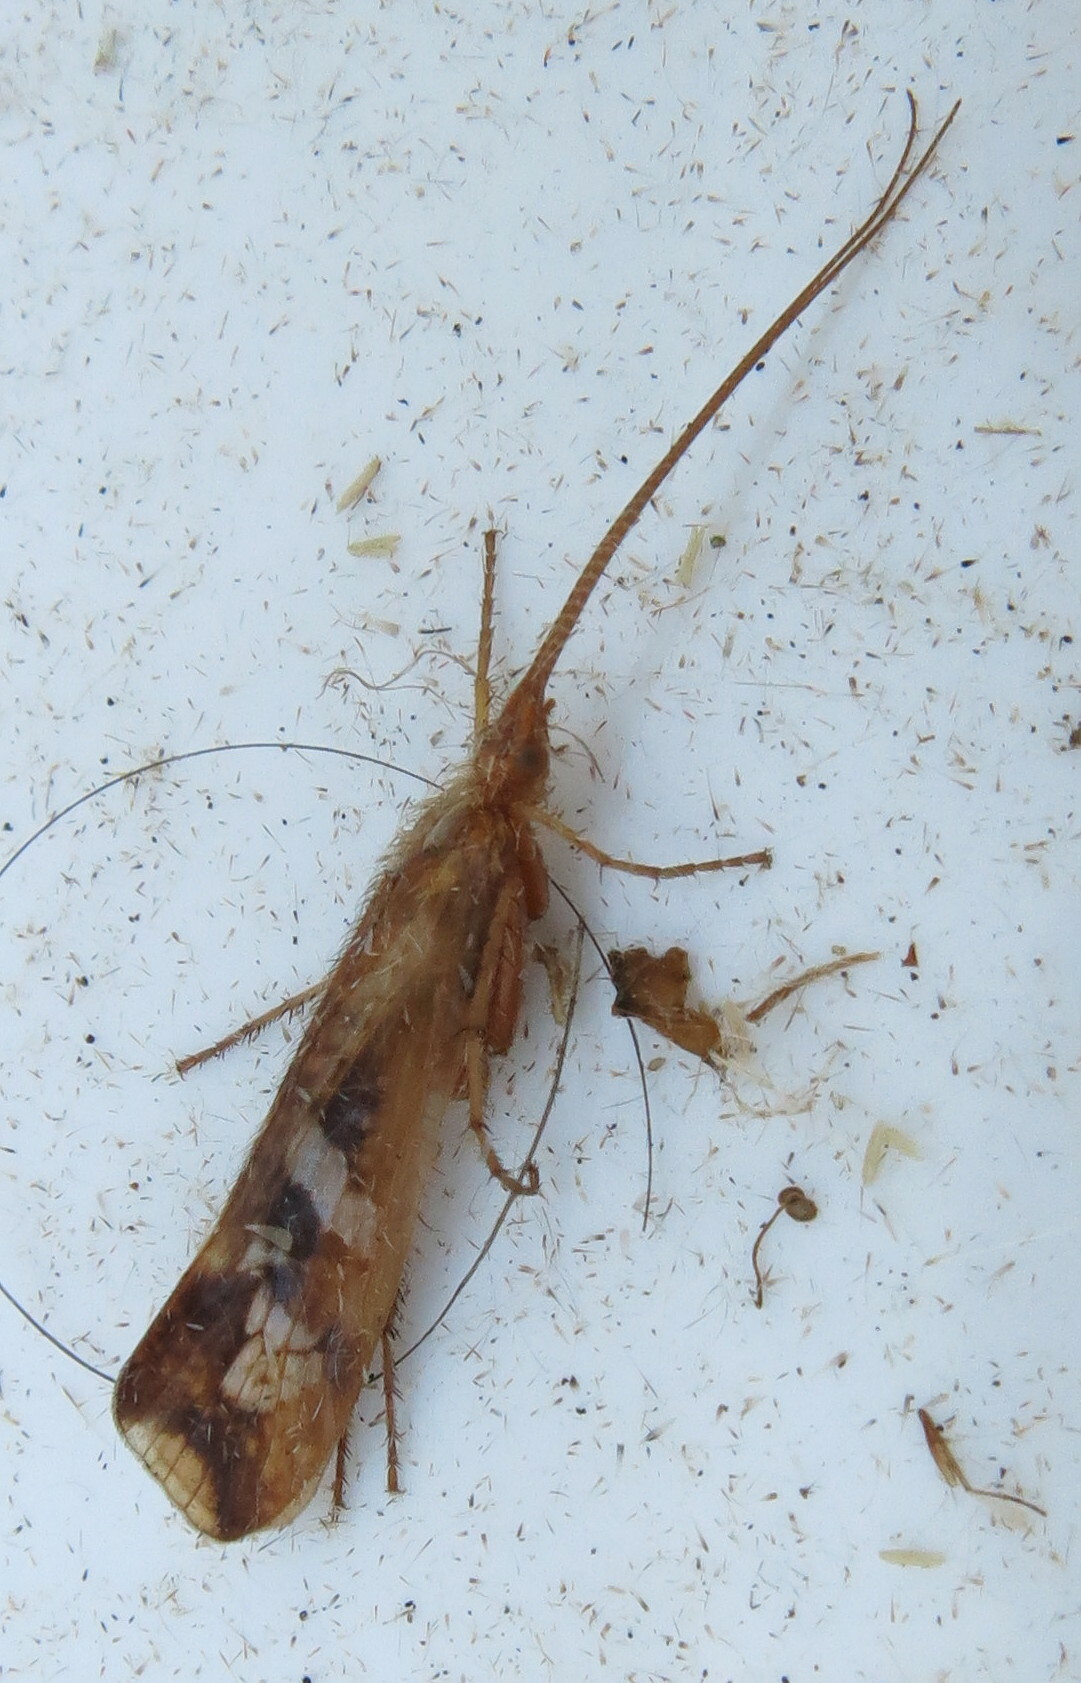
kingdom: Animalia
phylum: Arthropoda
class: Insecta
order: Trichoptera
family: Limnephilidae
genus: Limnephilus
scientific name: Limnephilus lunatus
